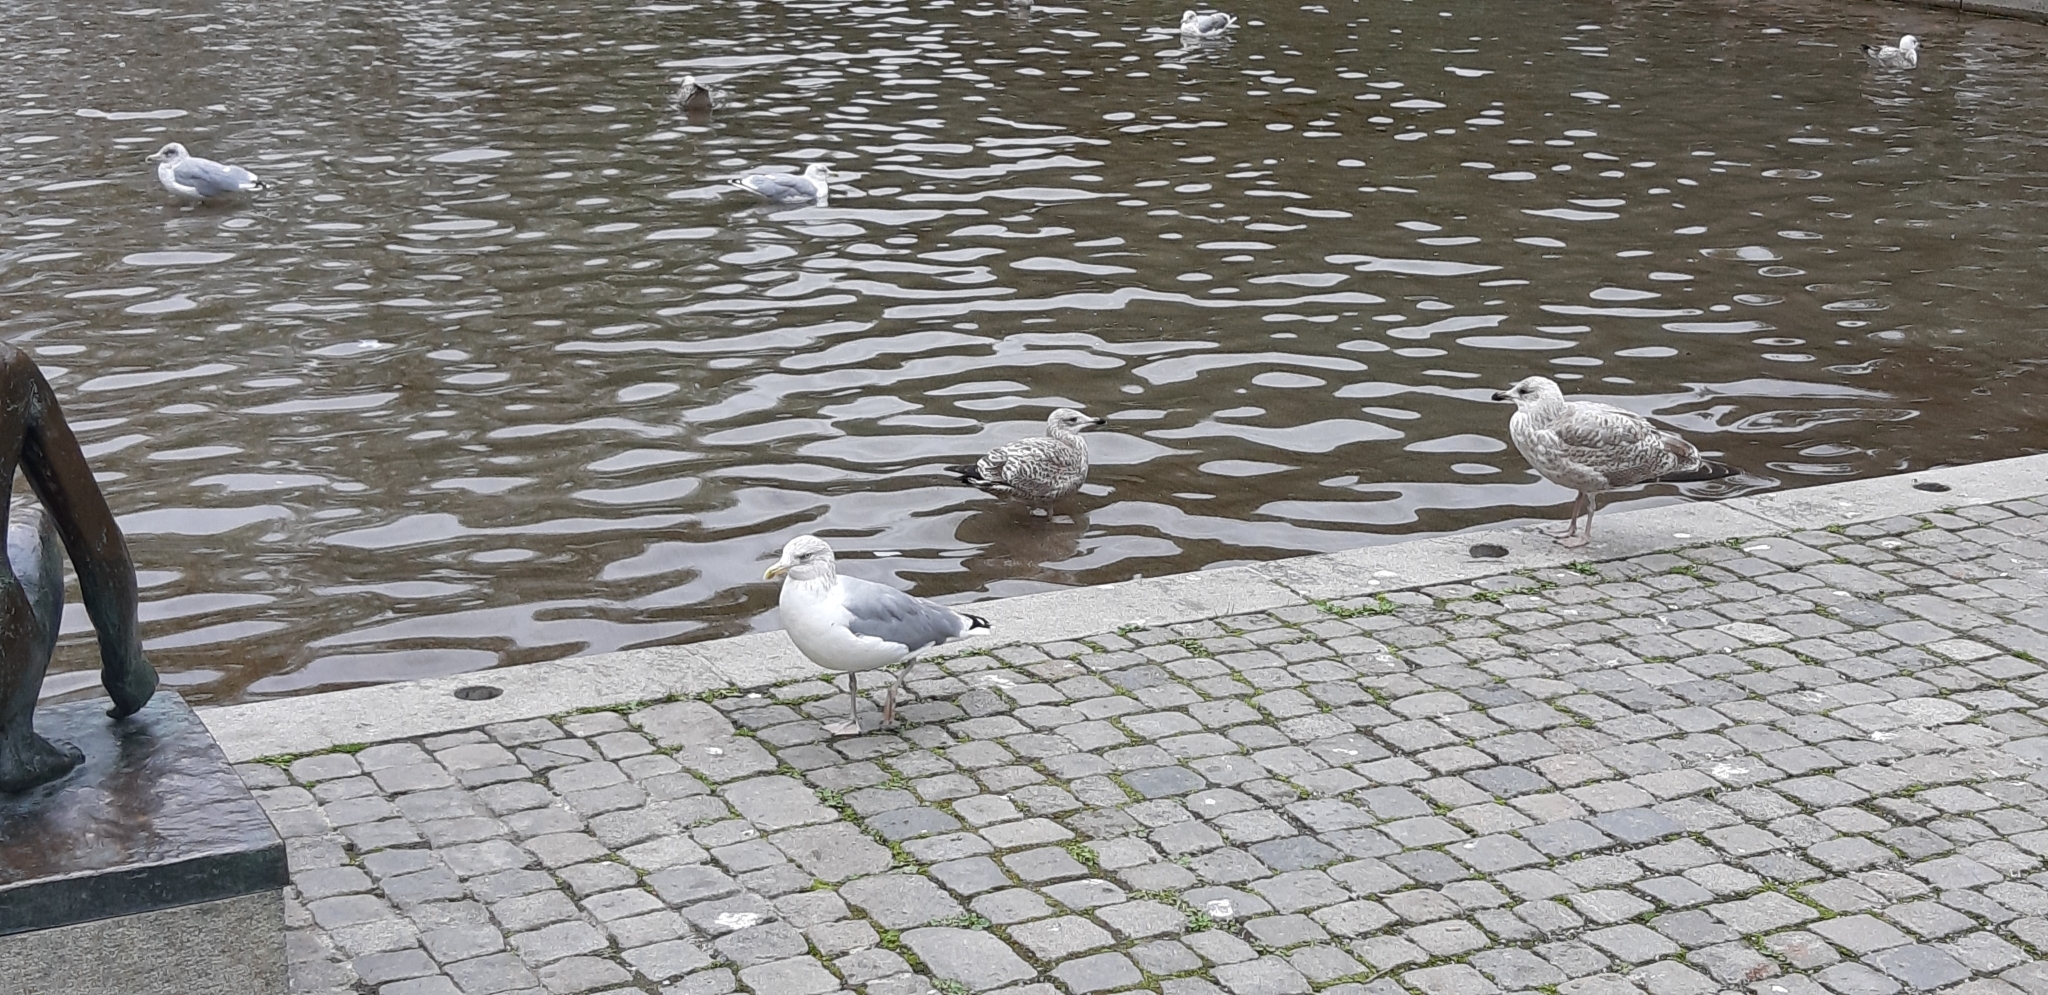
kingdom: Animalia
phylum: Chordata
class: Aves
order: Charadriiformes
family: Laridae
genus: Larus
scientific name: Larus argentatus
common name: Herring gull
